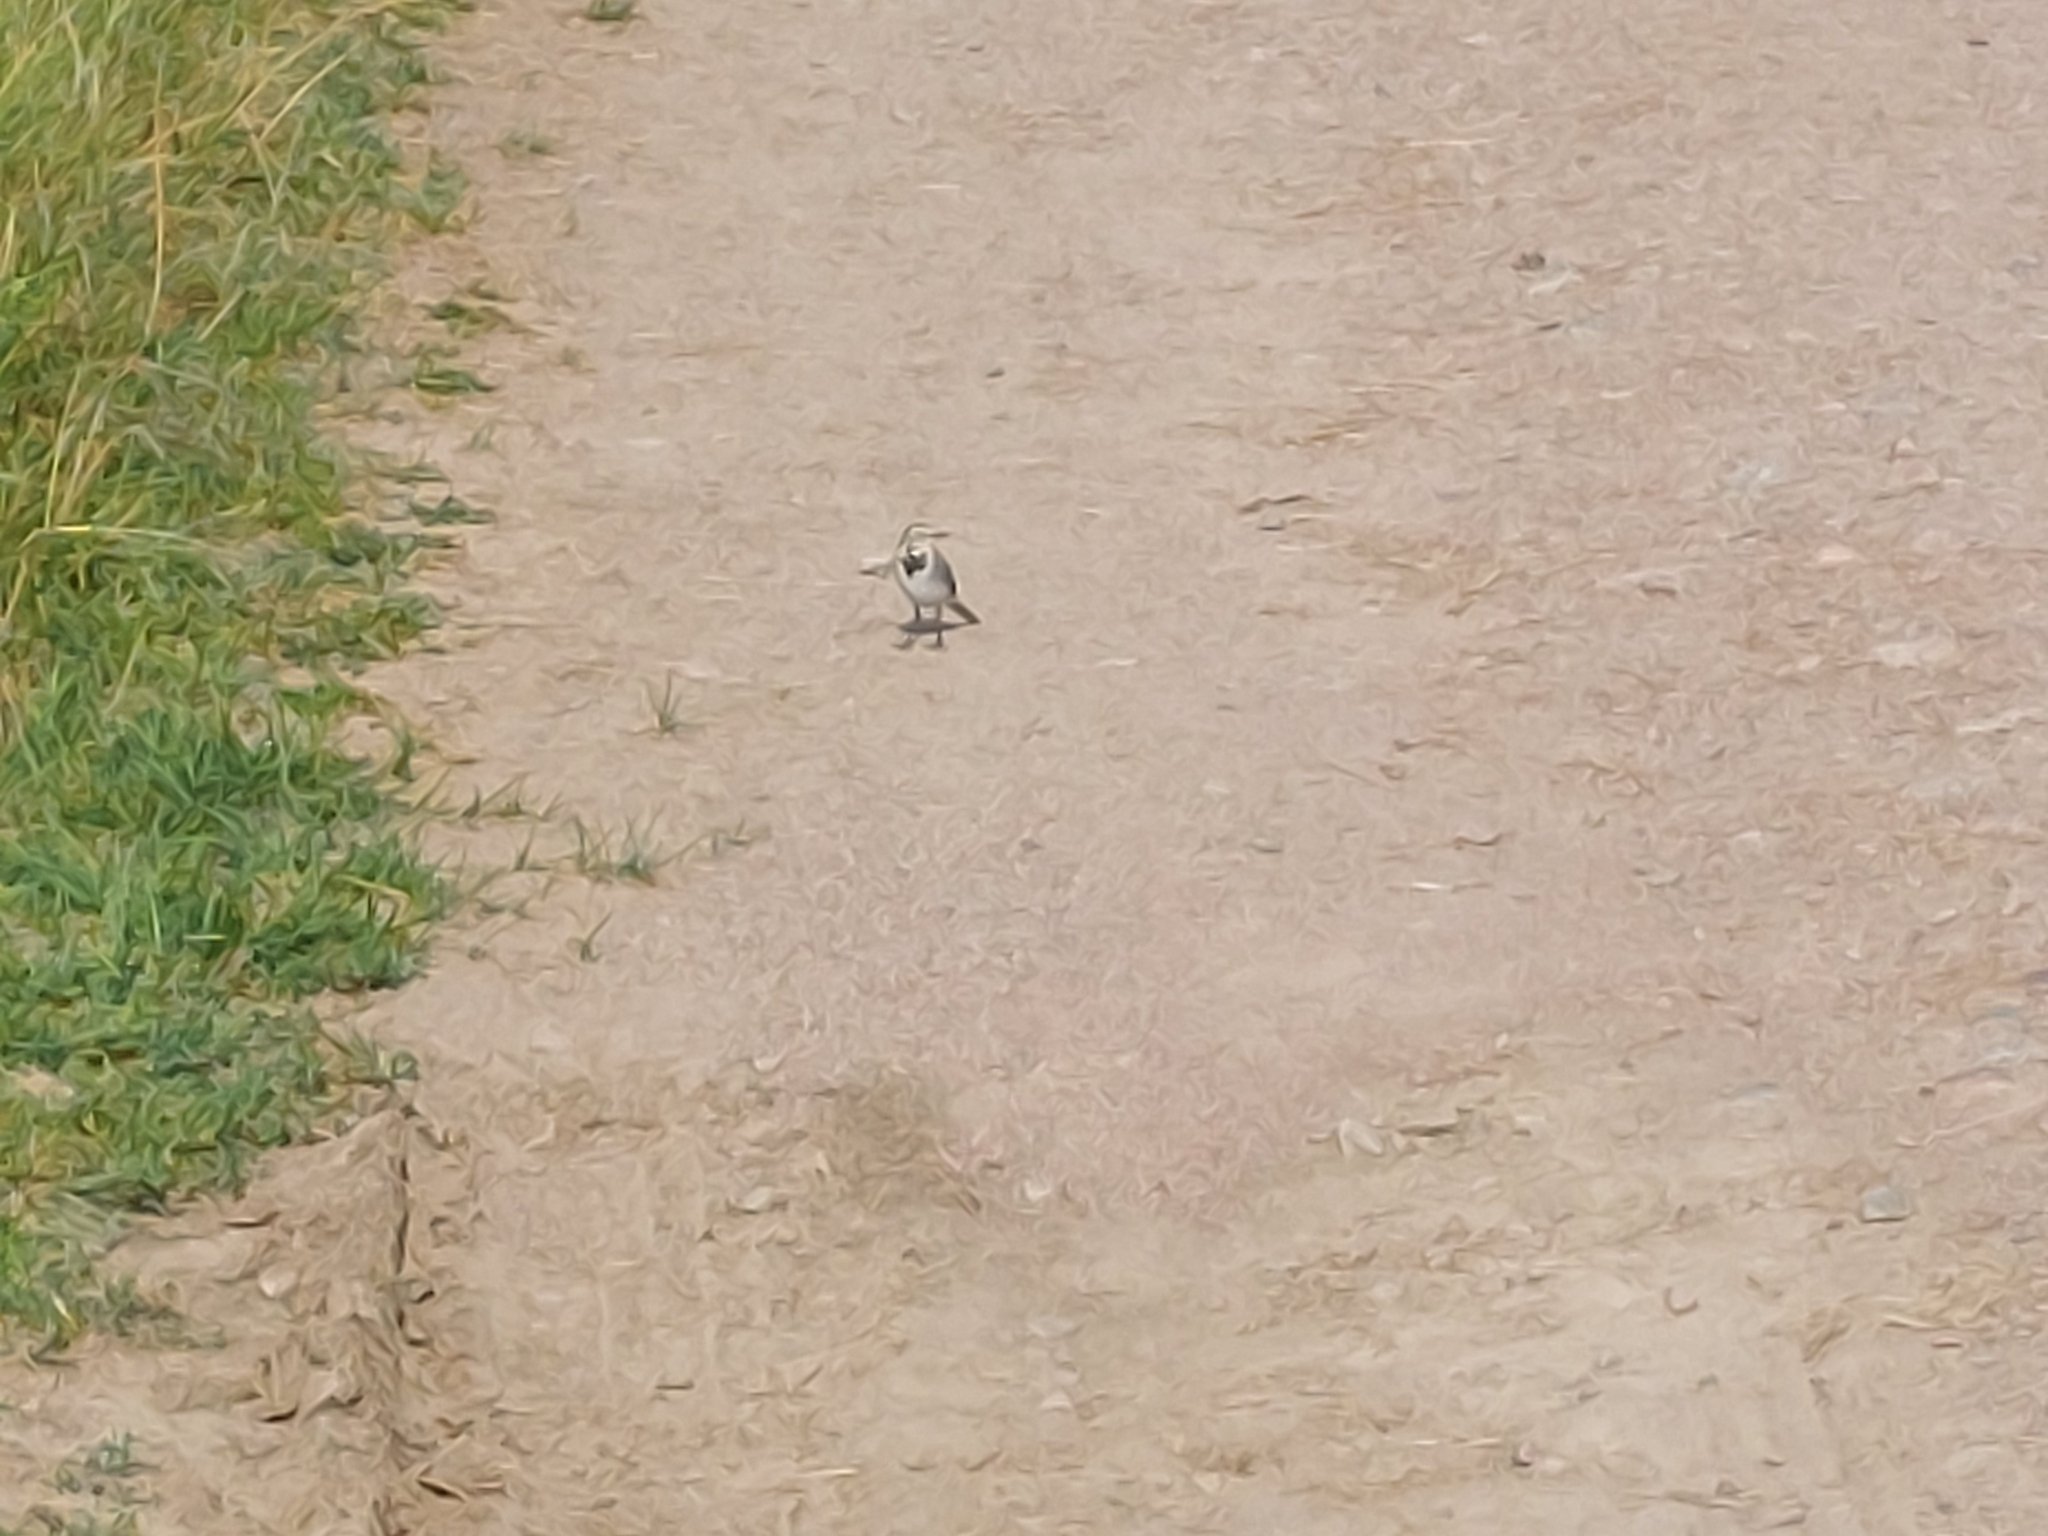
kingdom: Animalia
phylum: Chordata
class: Aves
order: Passeriformes
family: Motacillidae
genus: Motacilla
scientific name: Motacilla alba
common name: White wagtail
